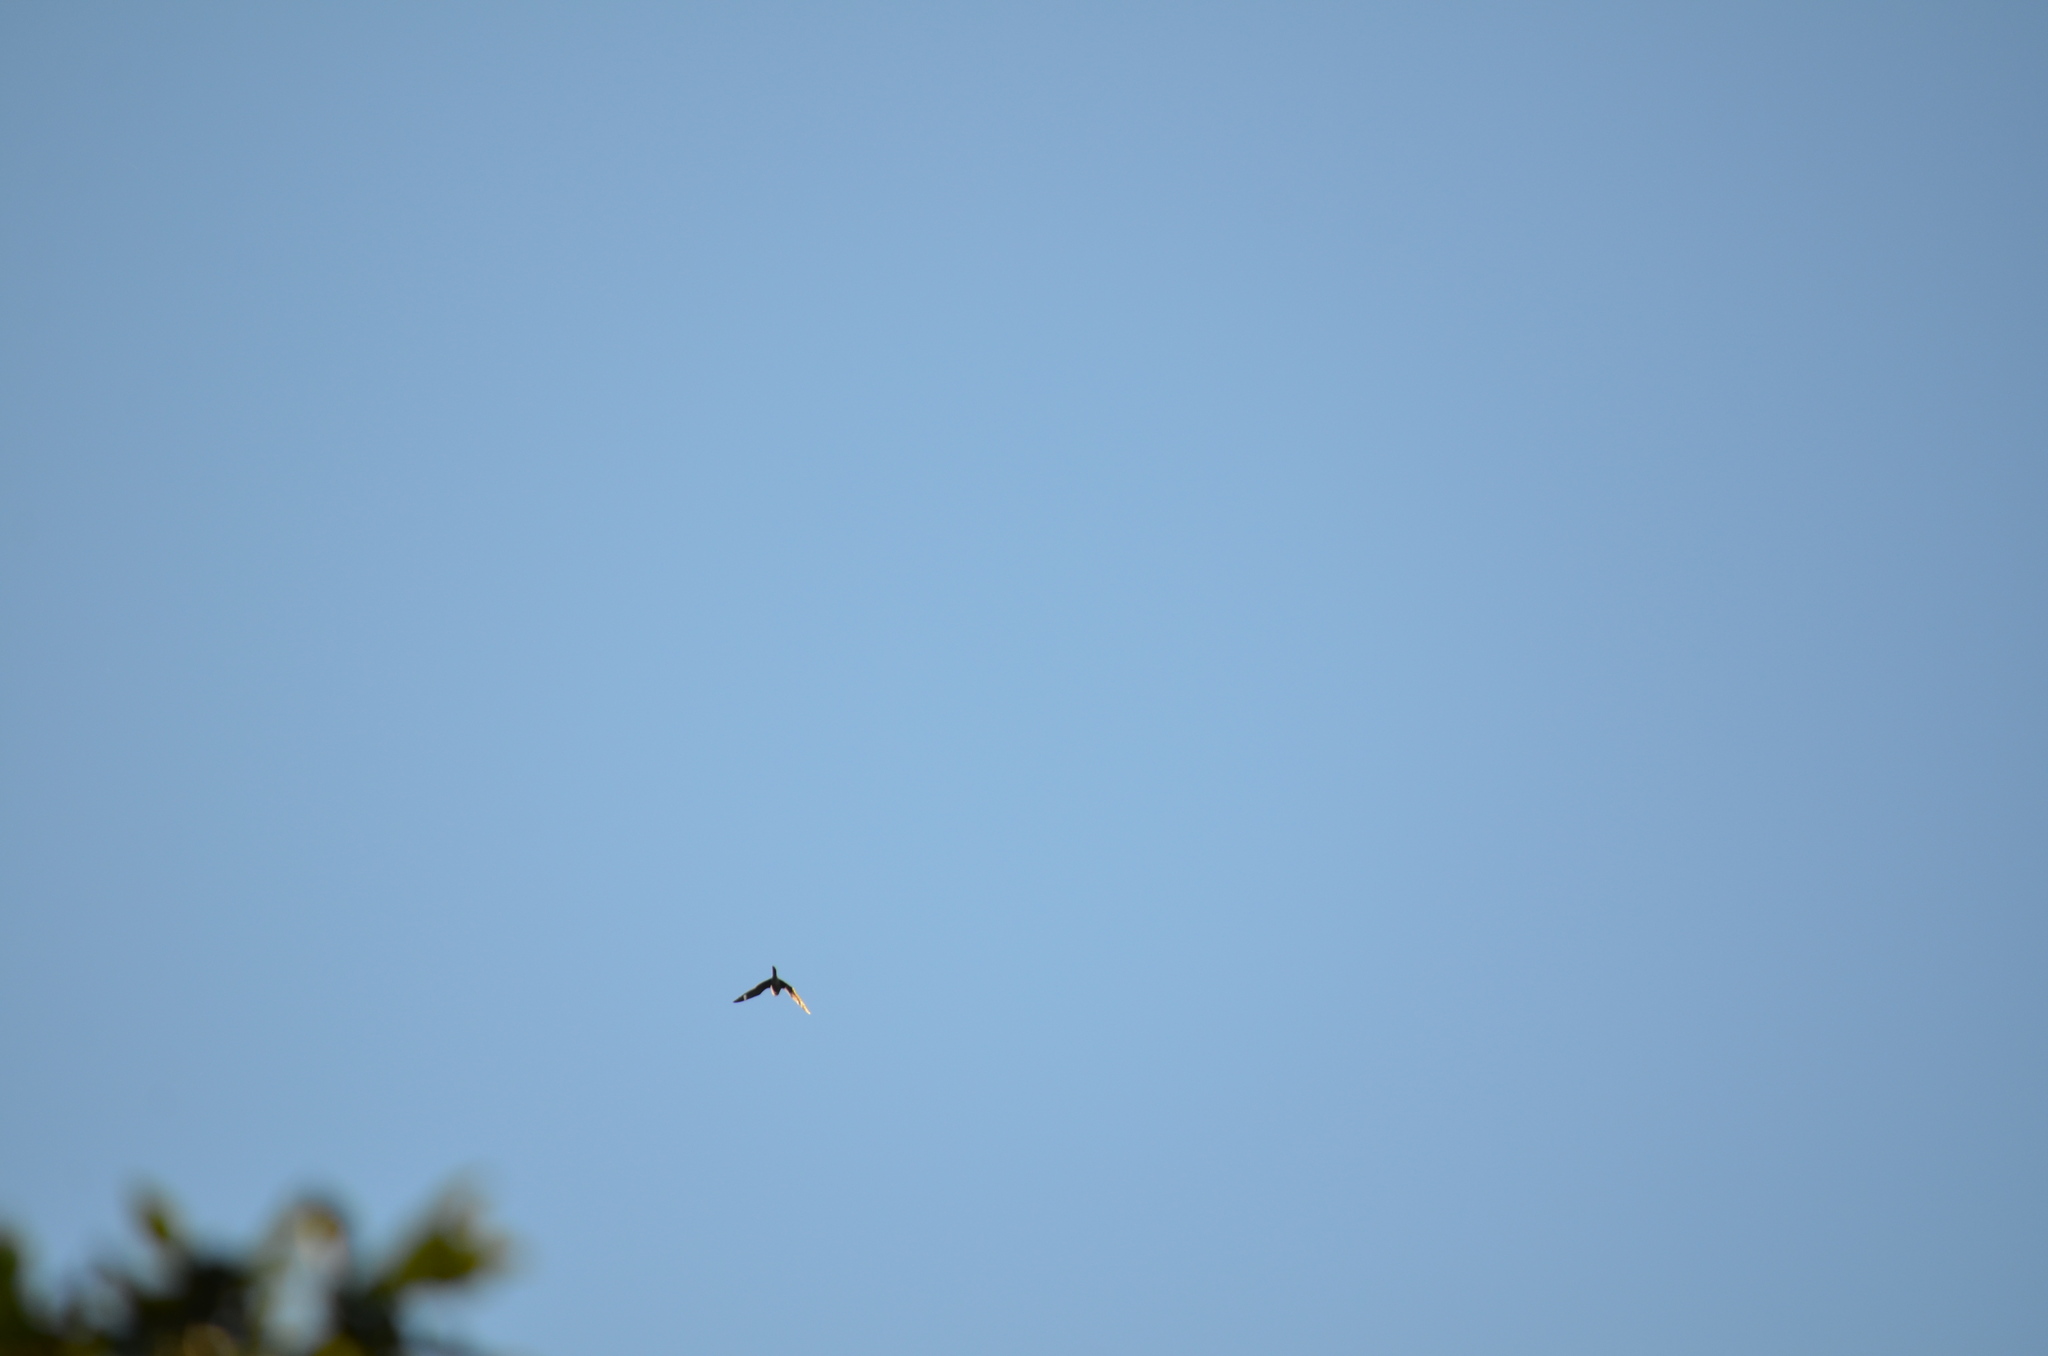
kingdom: Animalia
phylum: Chordata
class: Aves
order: Caprimulgiformes
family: Caprimulgidae
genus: Chordeiles
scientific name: Chordeiles minor
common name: Common nighthawk
